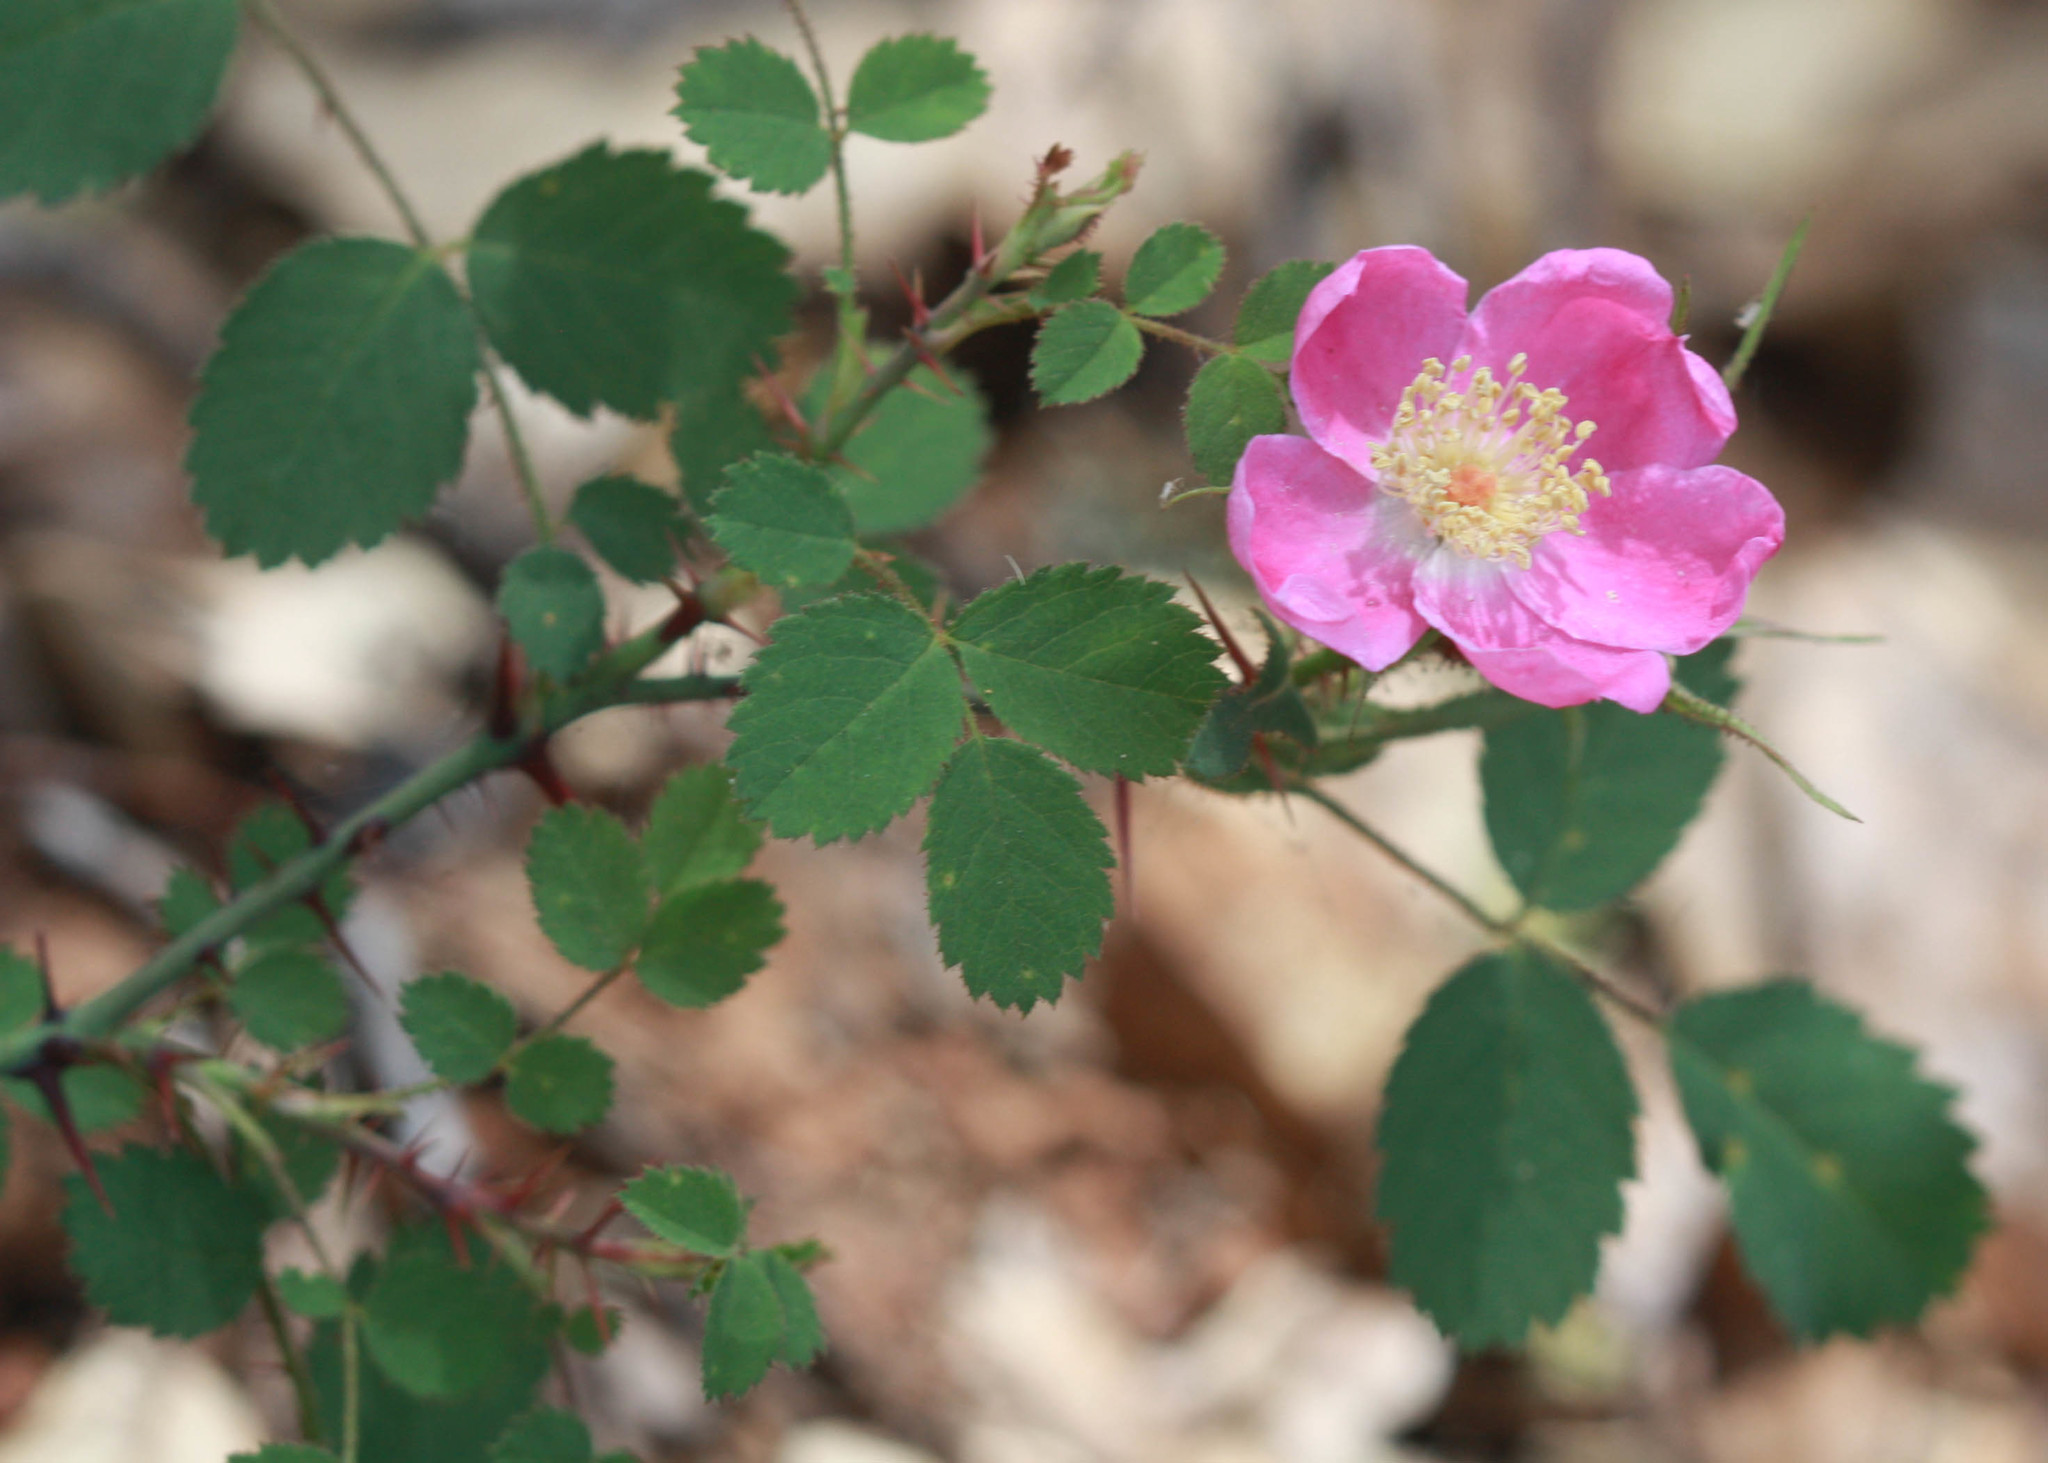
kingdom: Plantae
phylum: Tracheophyta
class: Magnoliopsida
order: Rosales
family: Rosaceae
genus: Rosa
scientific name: Rosa spithamea
